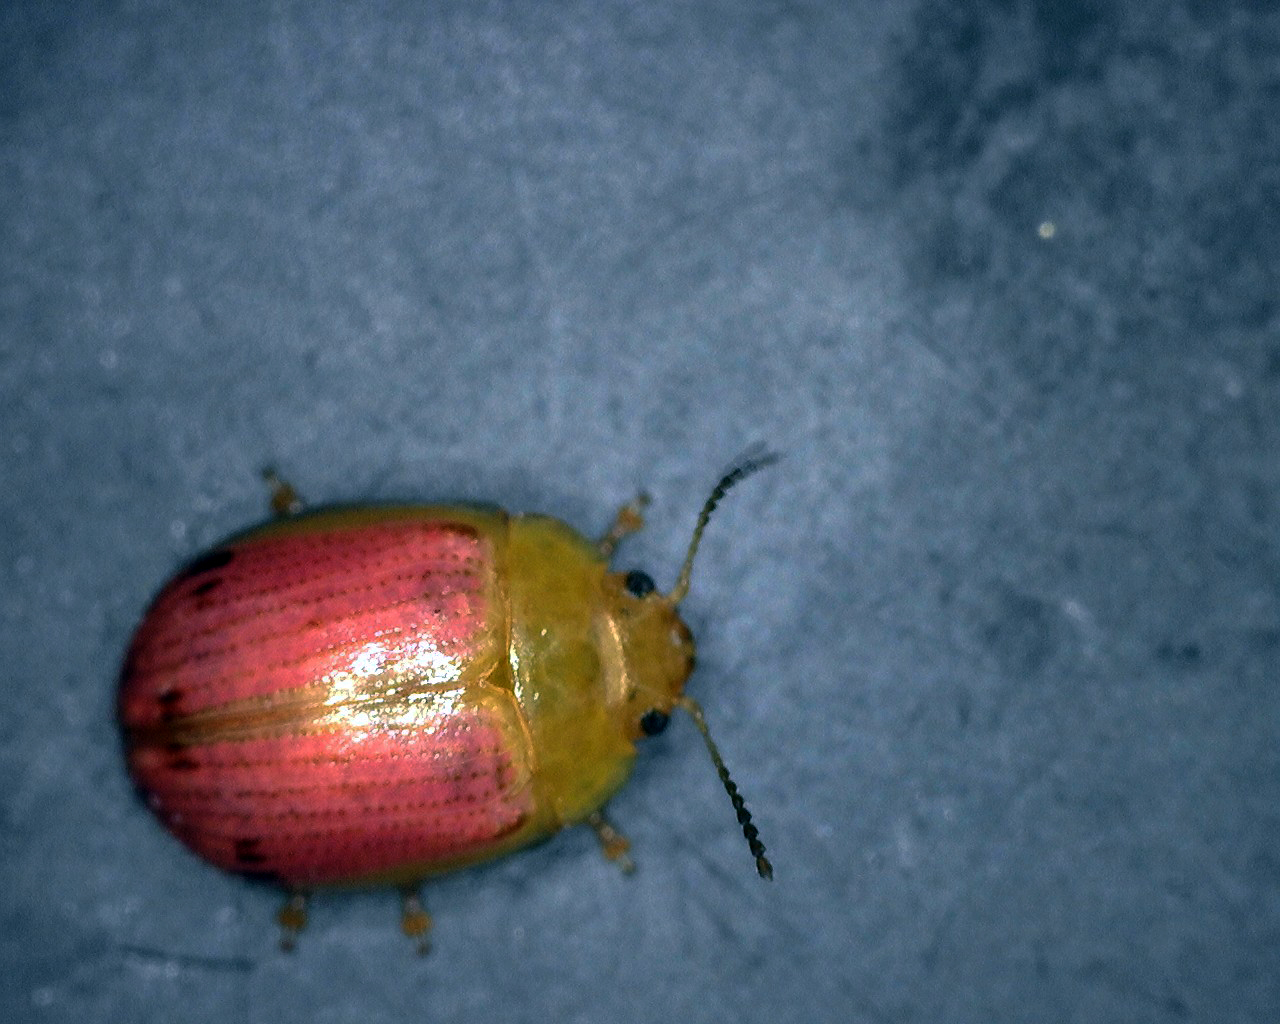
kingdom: Animalia
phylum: Arthropoda
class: Insecta
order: Coleoptera
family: Chrysomelidae
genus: Paropsisterna
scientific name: Paropsisterna
